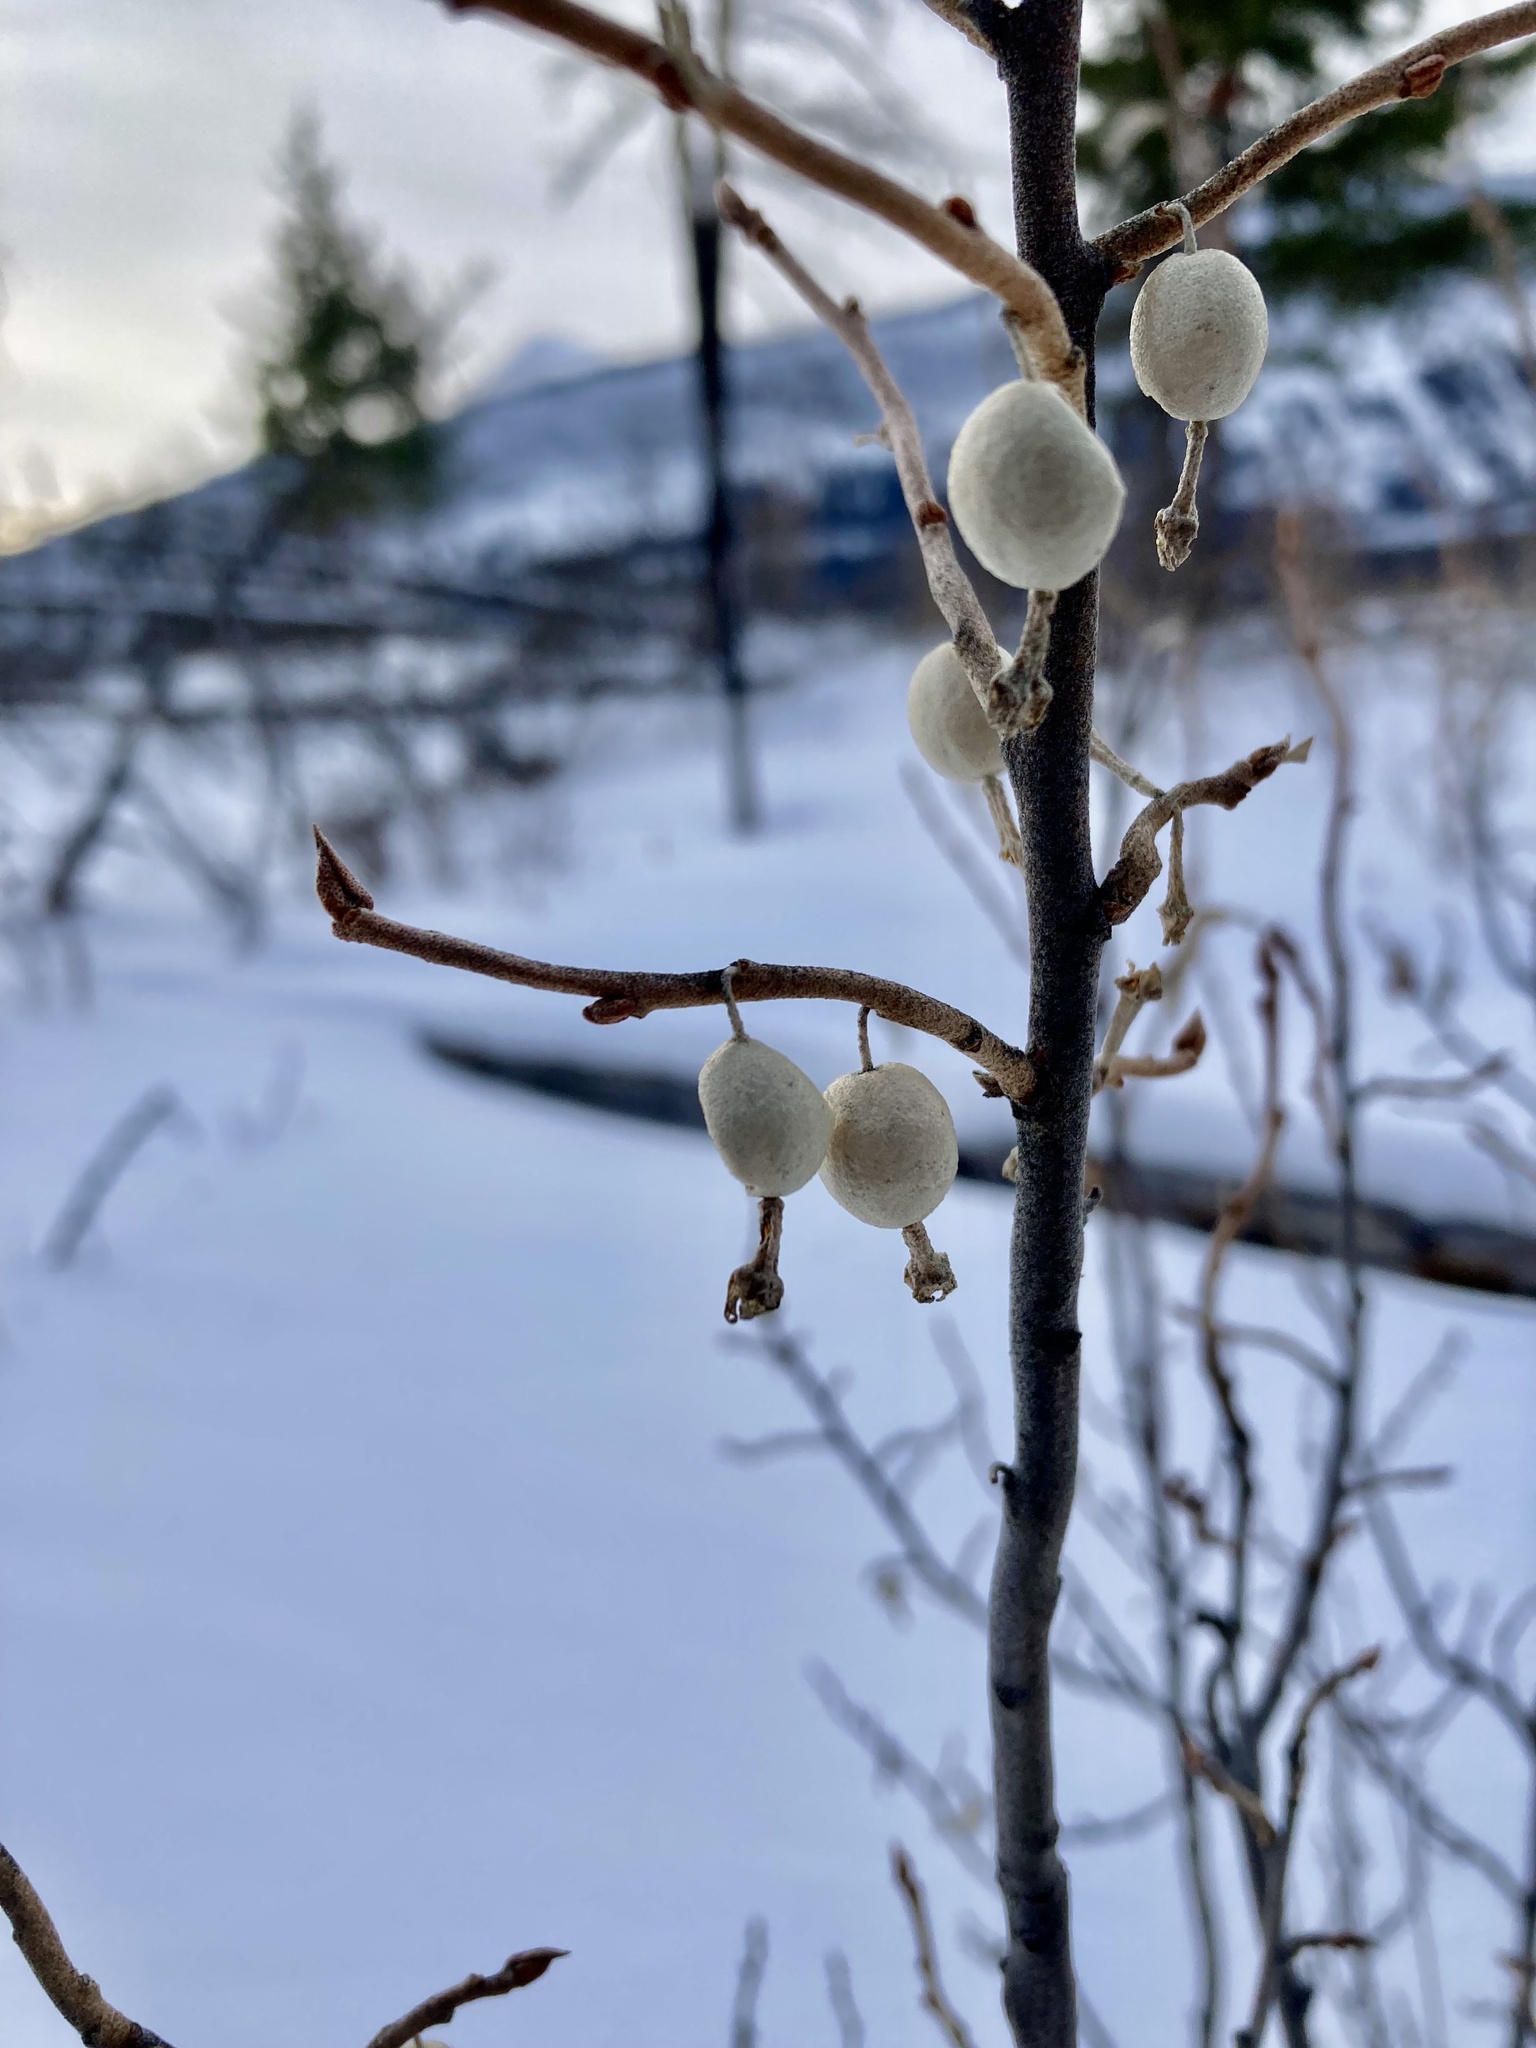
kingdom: Plantae
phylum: Tracheophyta
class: Magnoliopsida
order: Rosales
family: Elaeagnaceae
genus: Elaeagnus
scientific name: Elaeagnus commutata
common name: Silverberry
